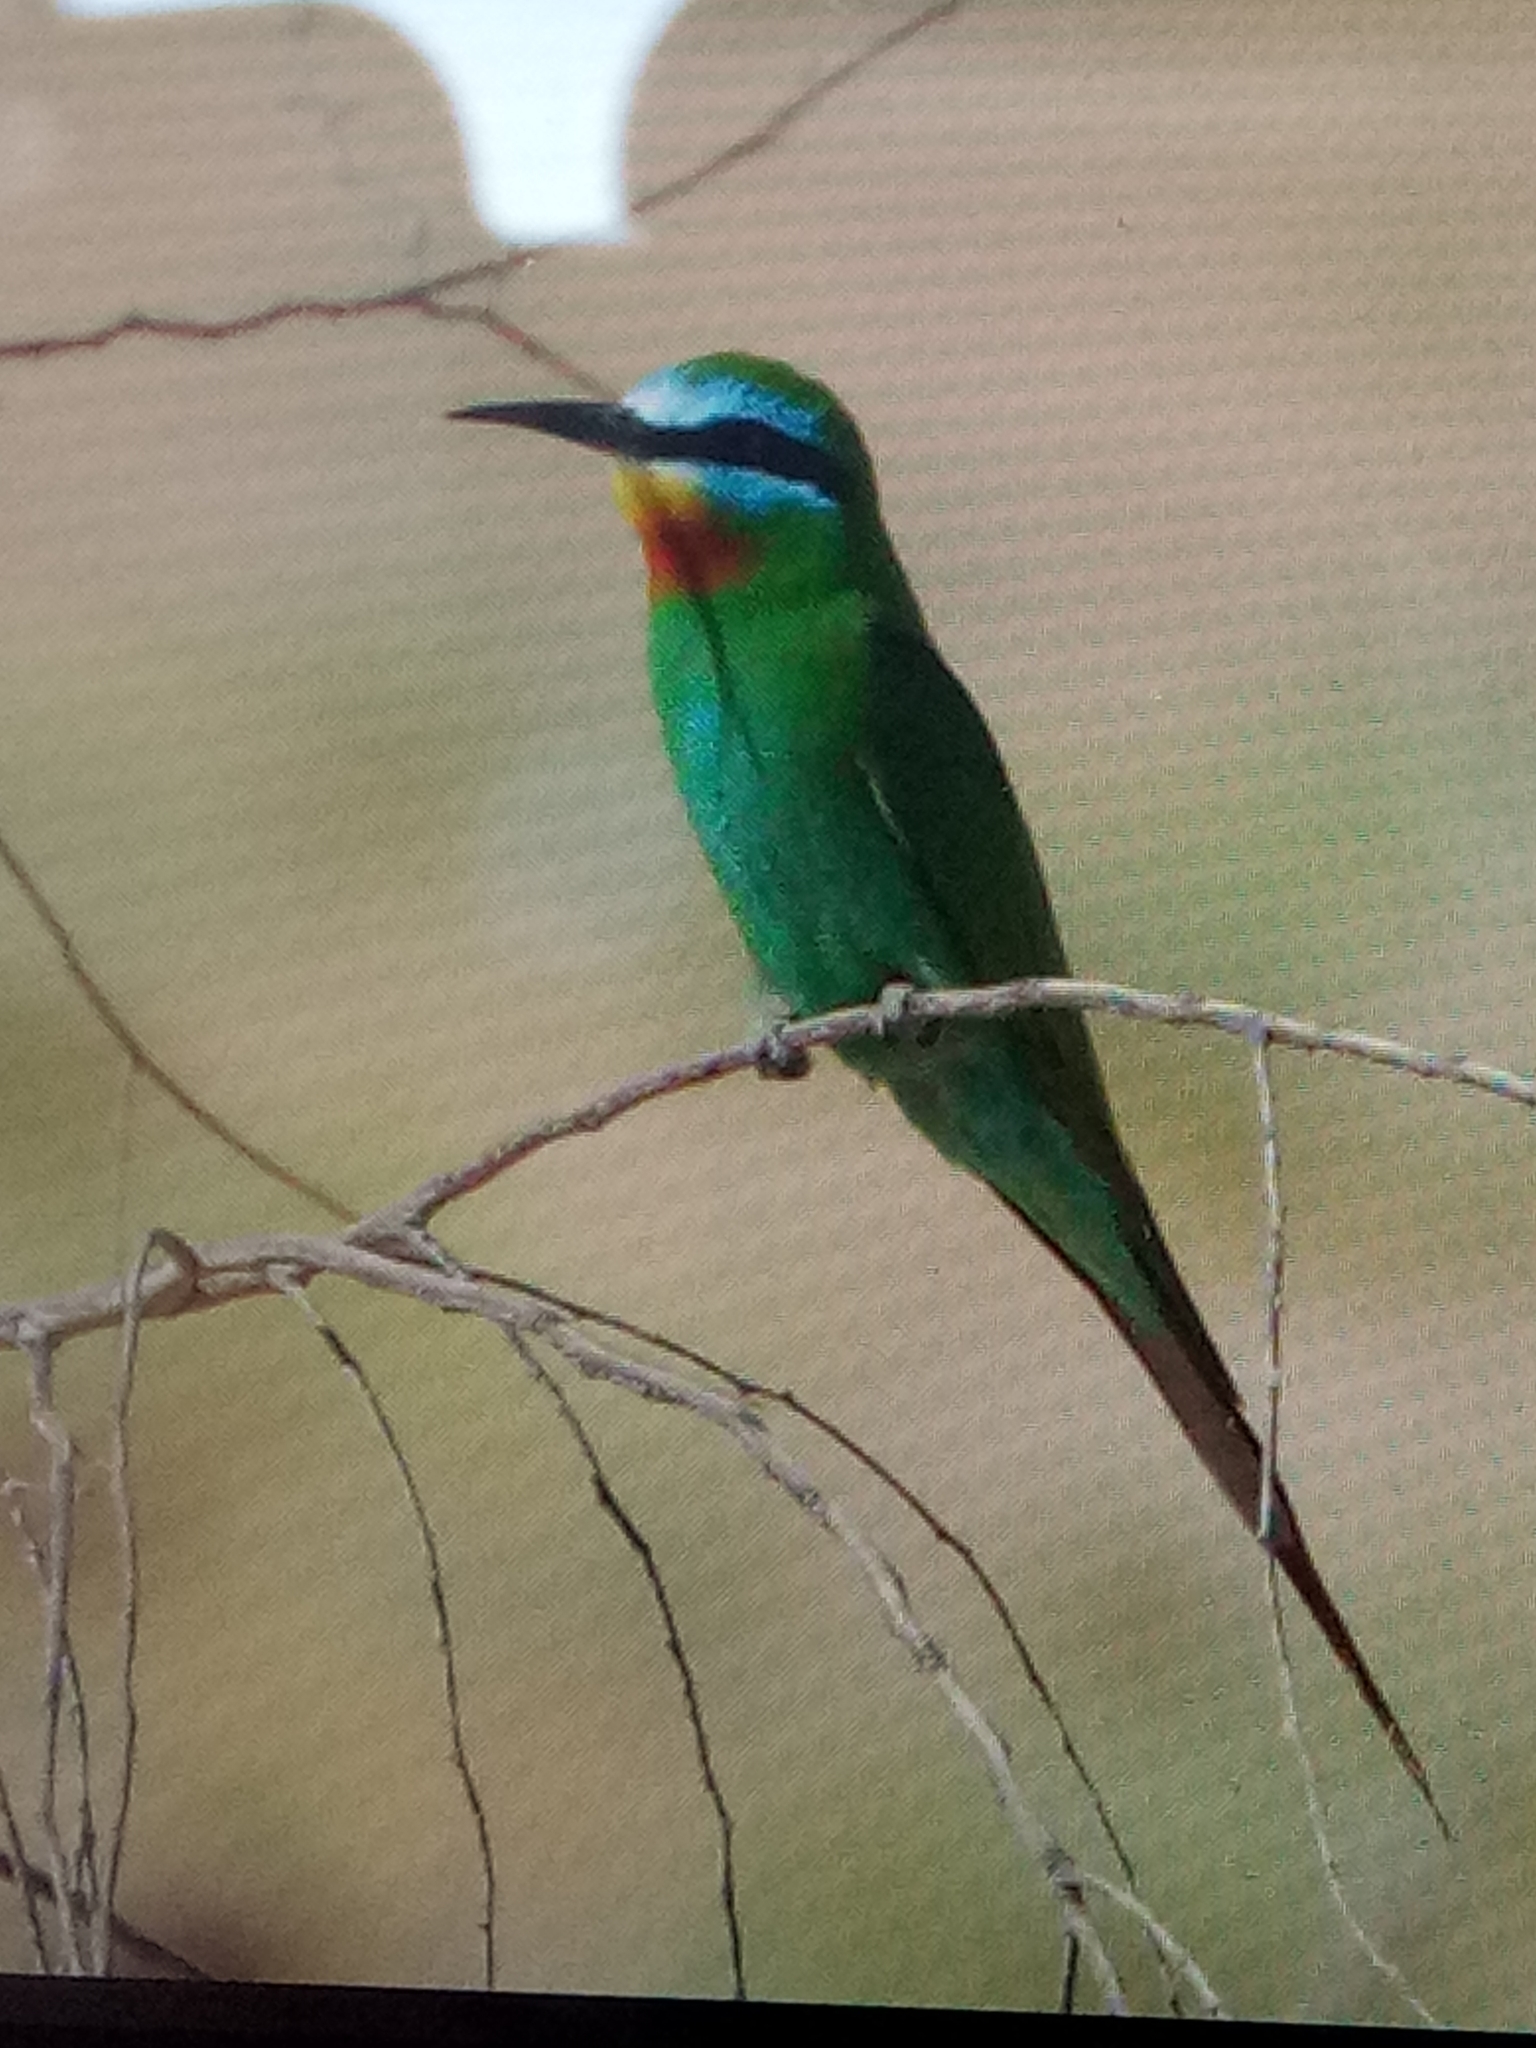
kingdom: Animalia
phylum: Chordata
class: Aves
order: Coraciiformes
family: Meropidae
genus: Merops
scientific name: Merops persicus
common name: Blue-cheeked bee-eater
